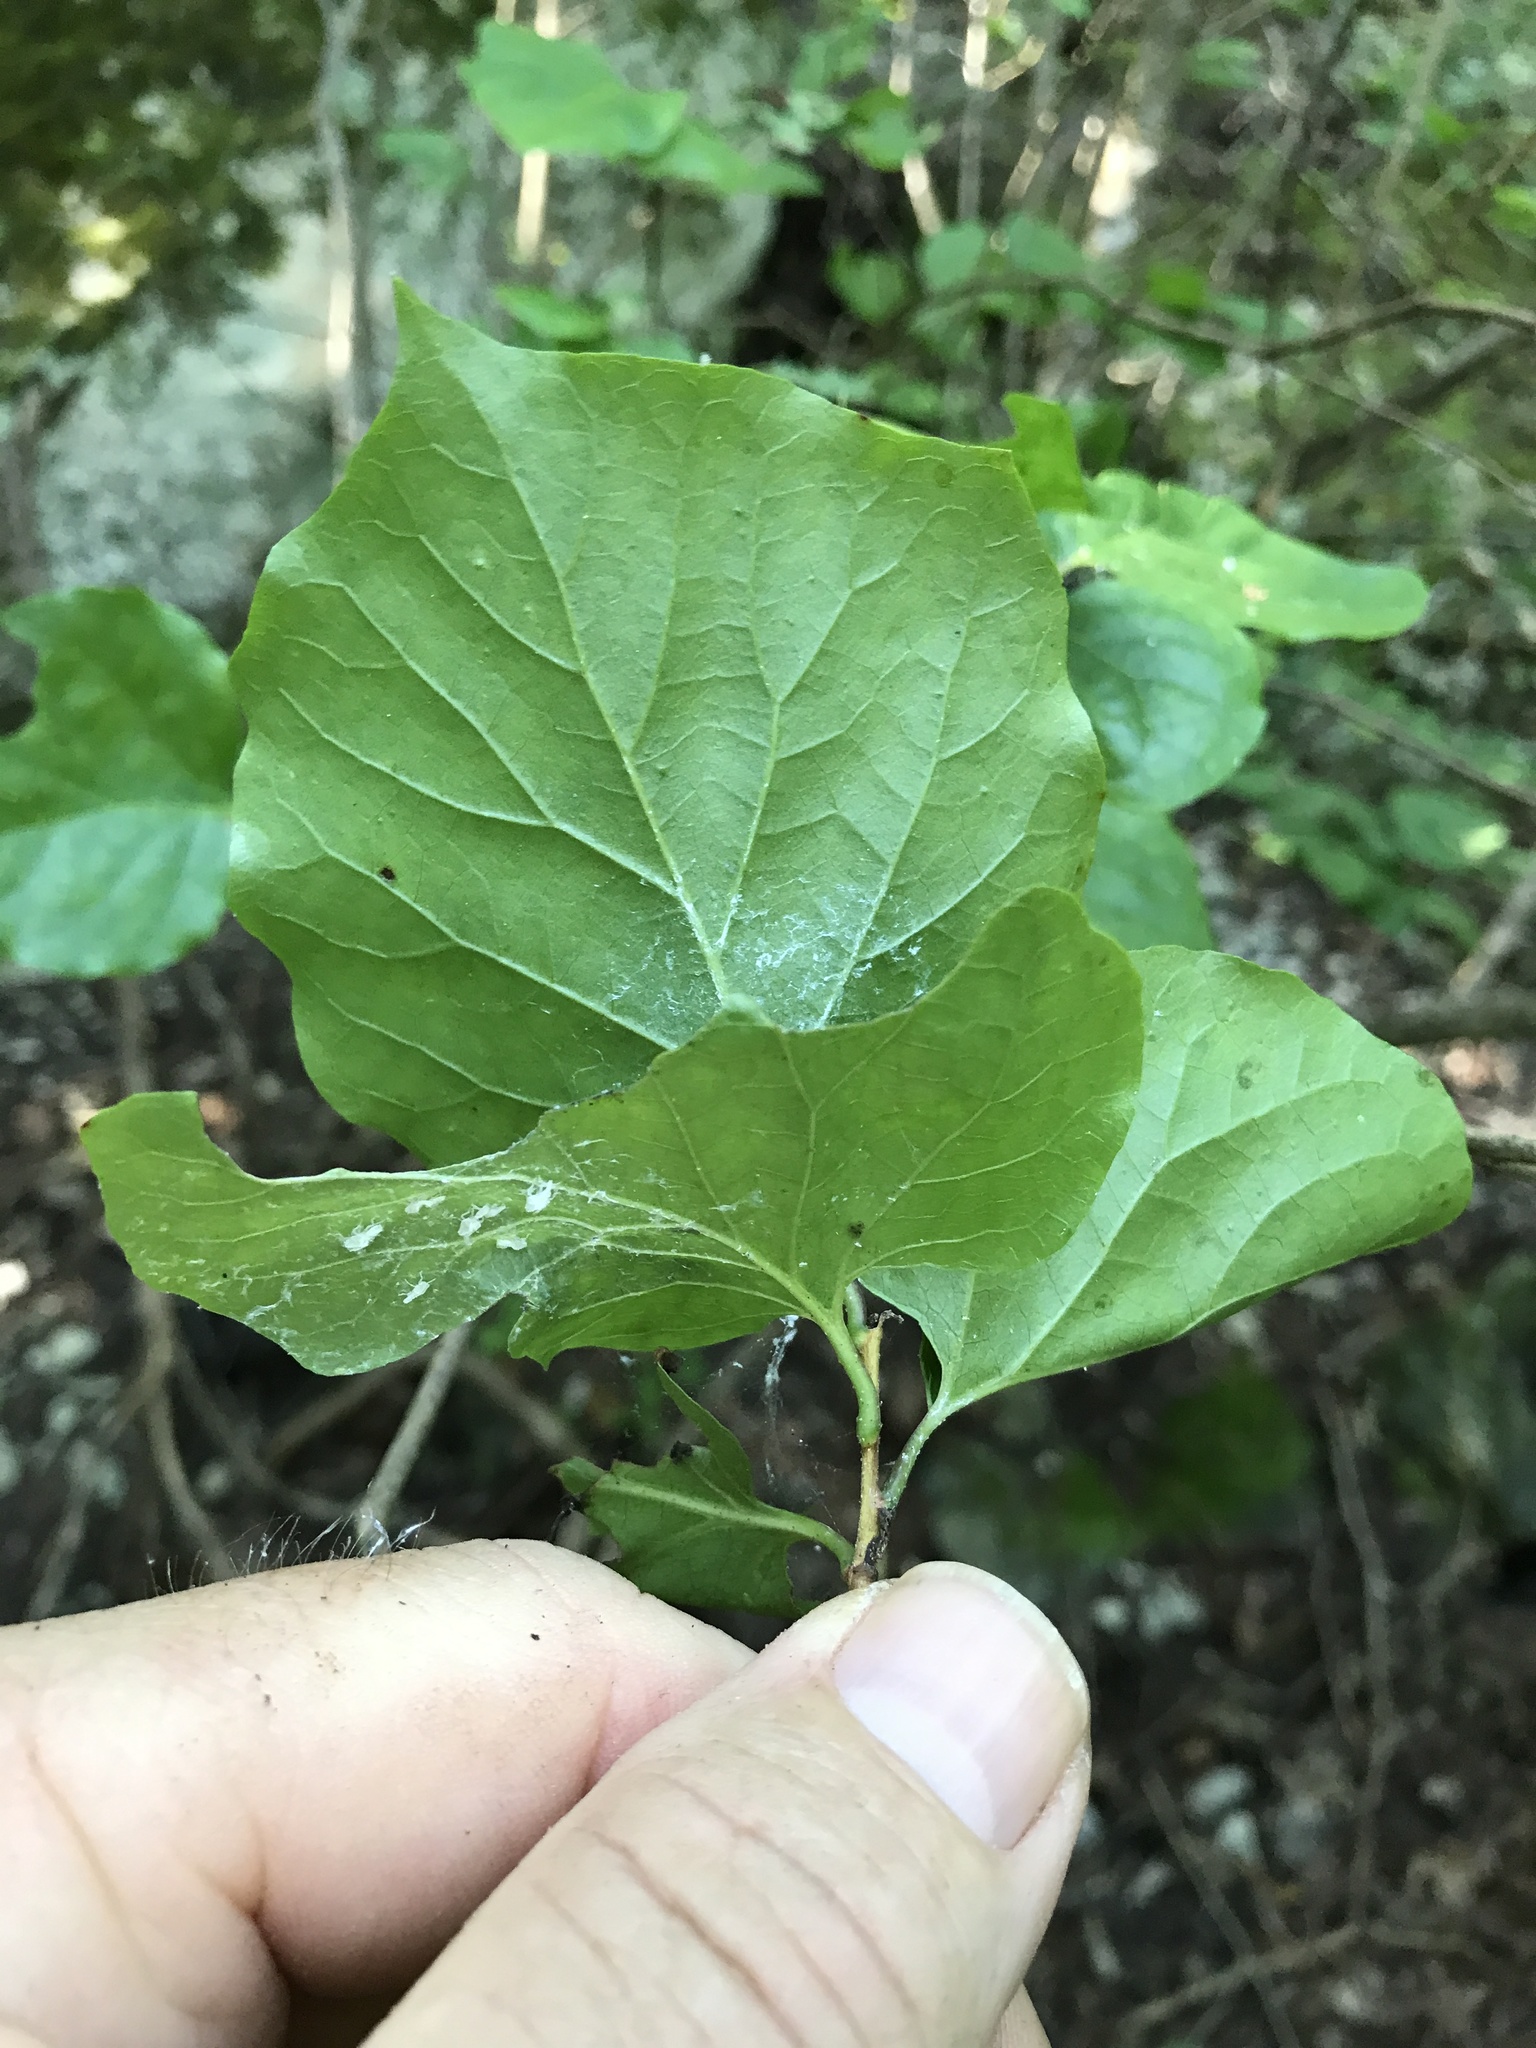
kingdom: Plantae
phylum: Tracheophyta
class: Magnoliopsida
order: Ericales
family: Styracaceae
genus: Styrax
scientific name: Styrax platanifolius
